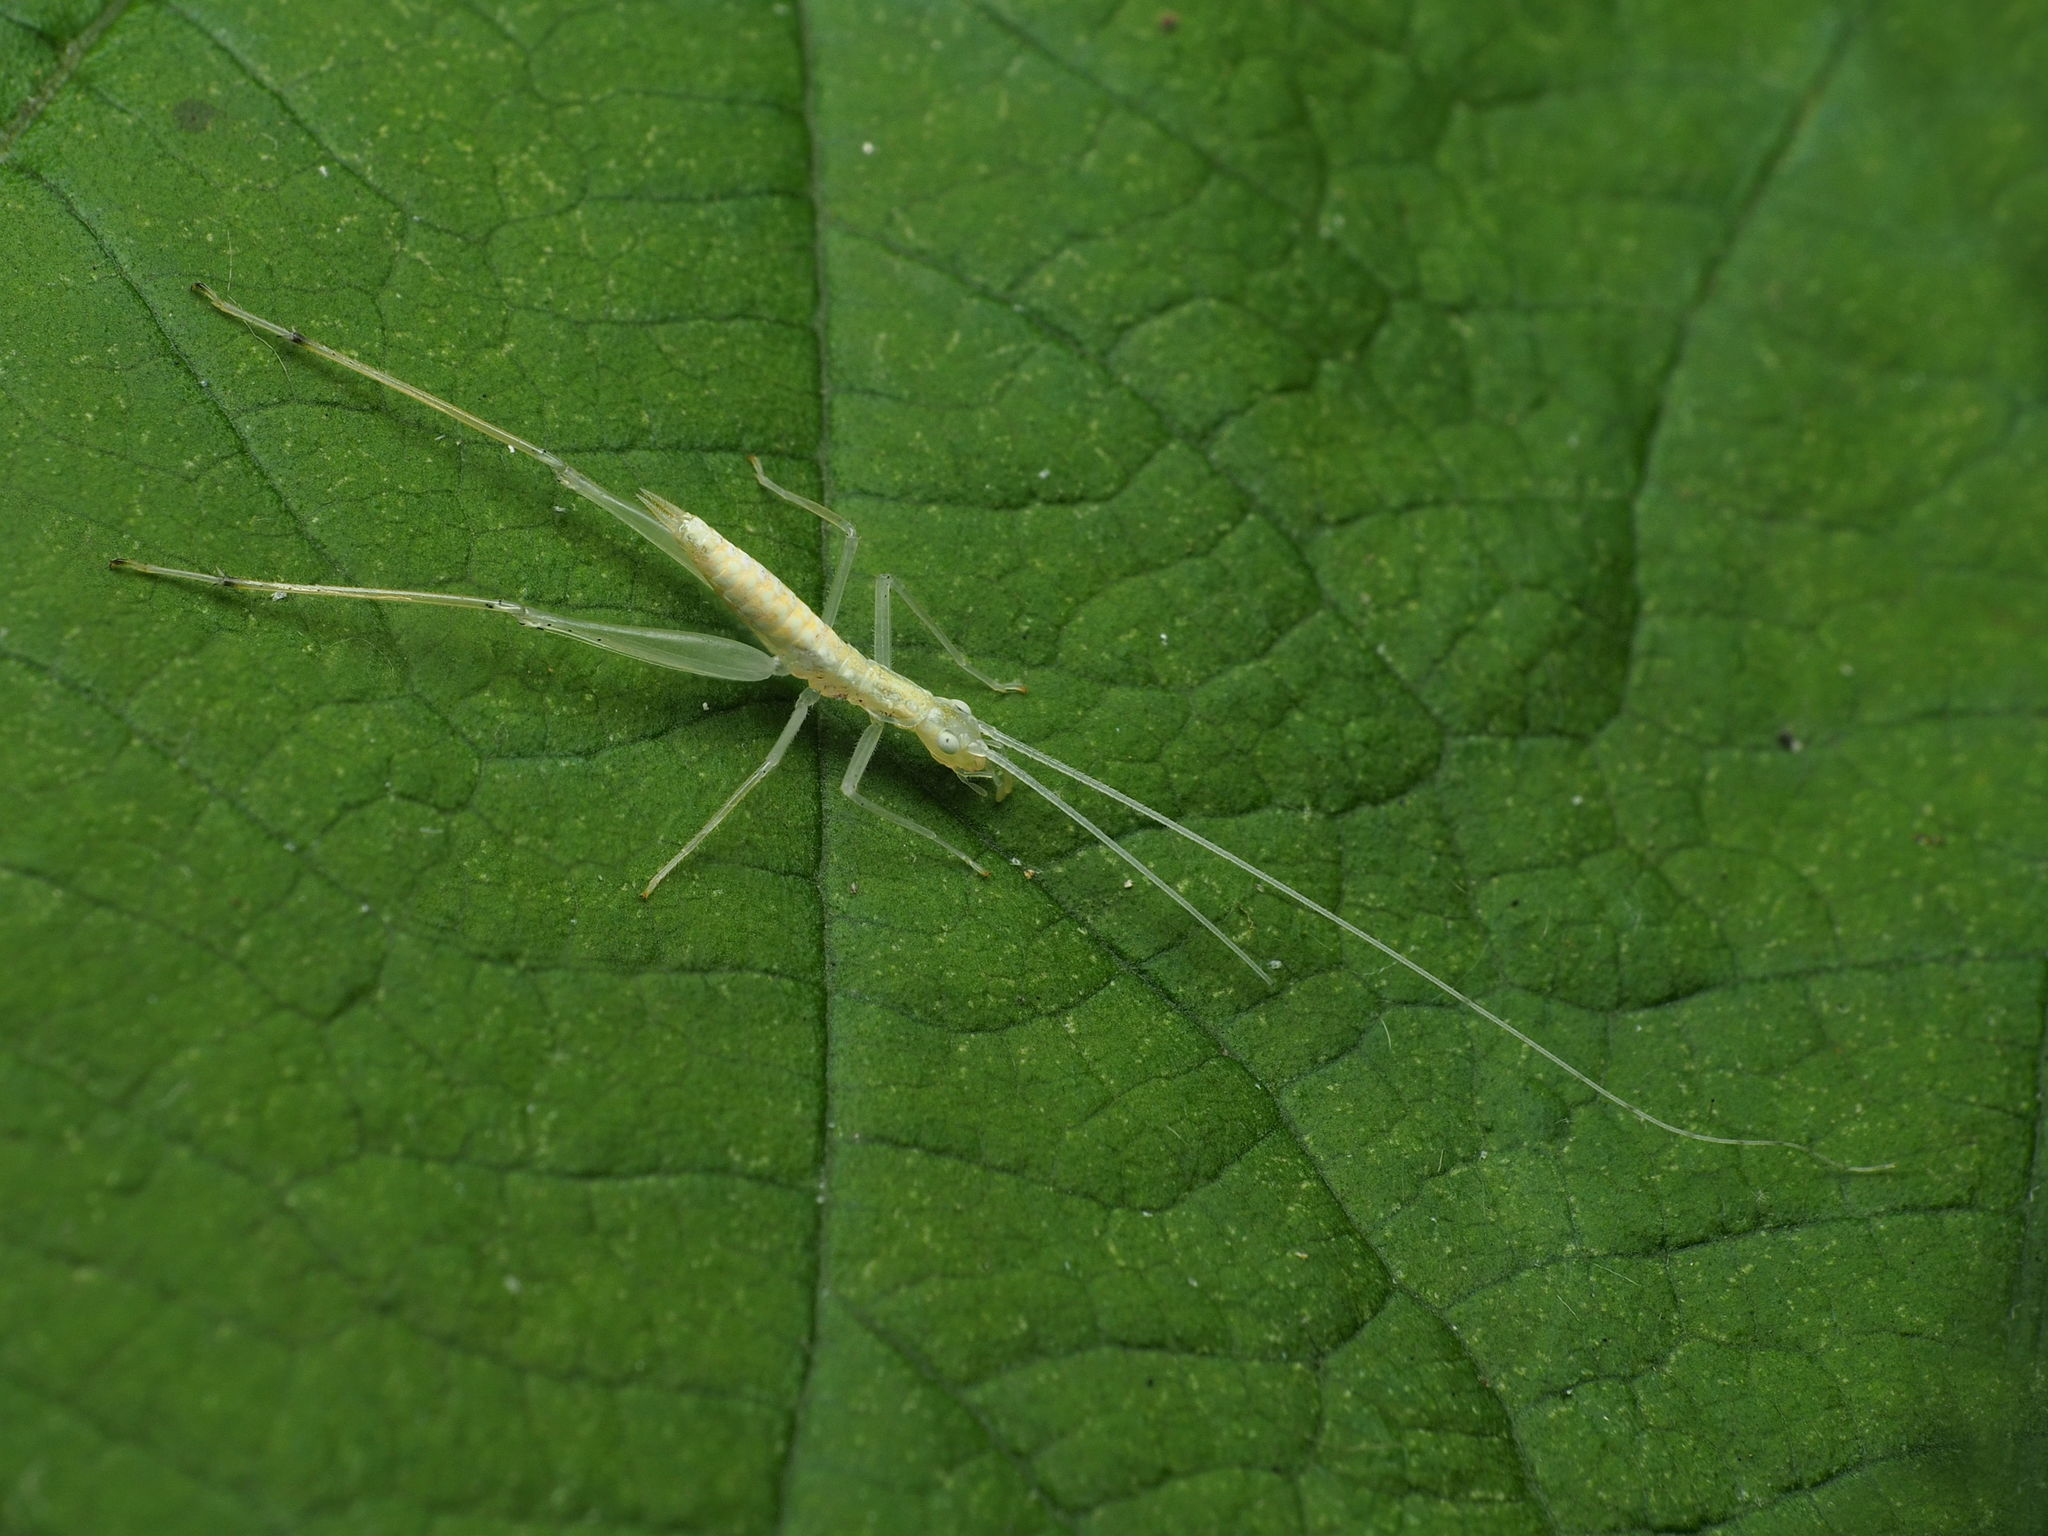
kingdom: Animalia
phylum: Arthropoda
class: Insecta
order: Orthoptera
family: Gryllidae
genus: Oecanthus
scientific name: Oecanthus
